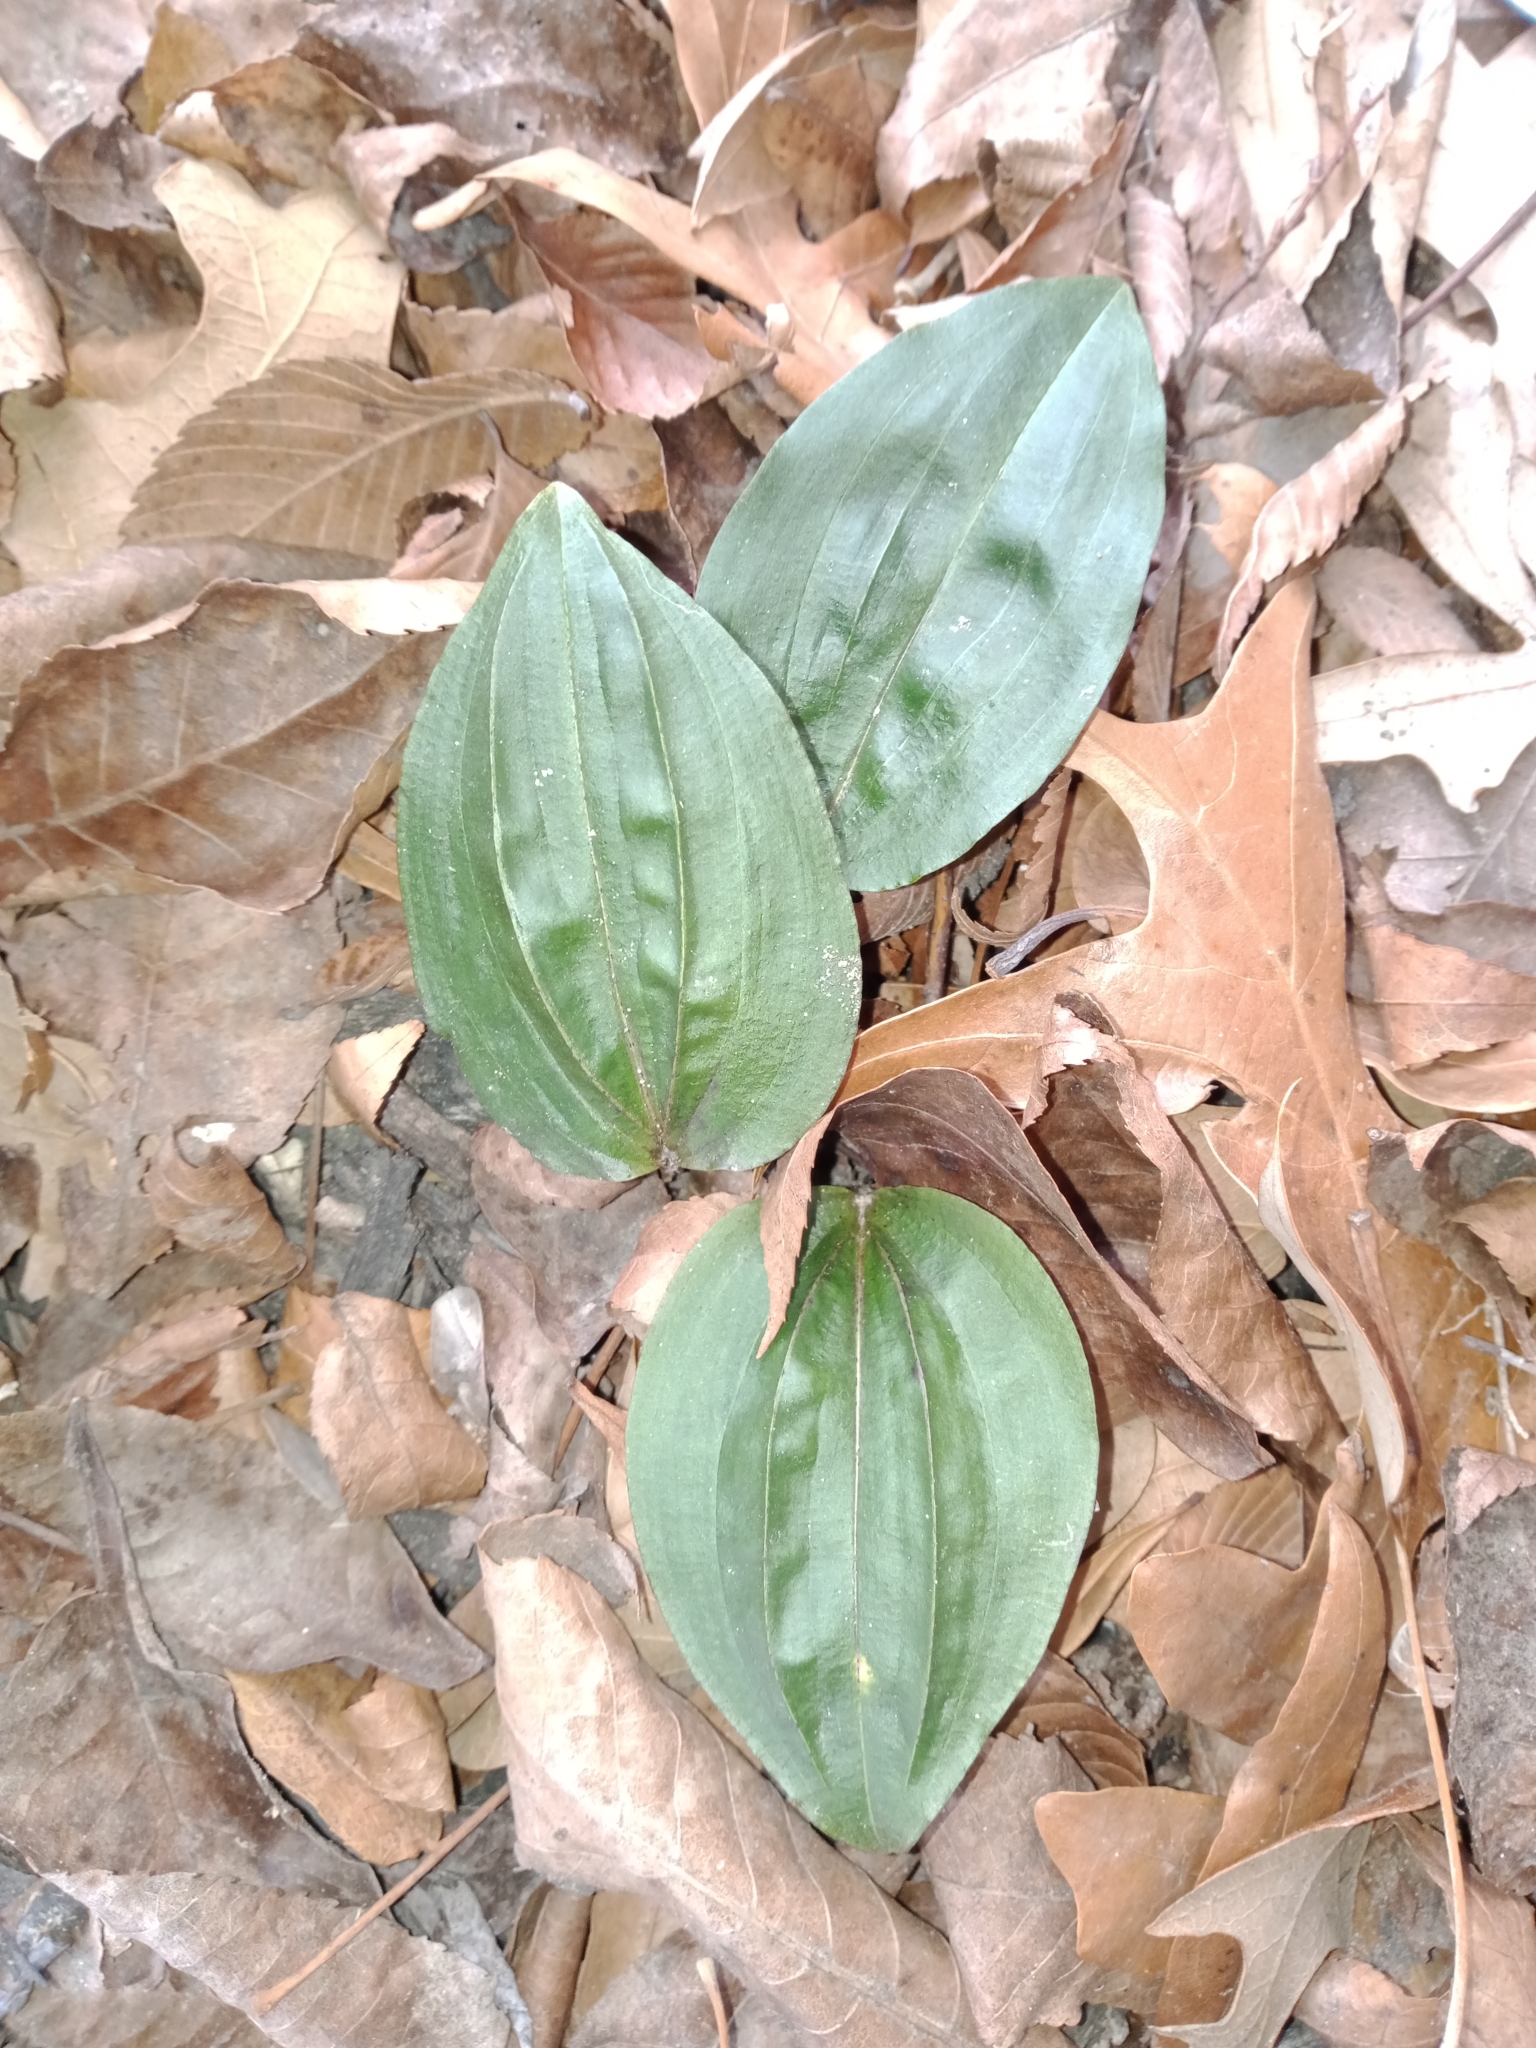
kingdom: Plantae
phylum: Tracheophyta
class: Liliopsida
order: Asparagales
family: Orchidaceae
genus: Tipularia
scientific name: Tipularia discolor
